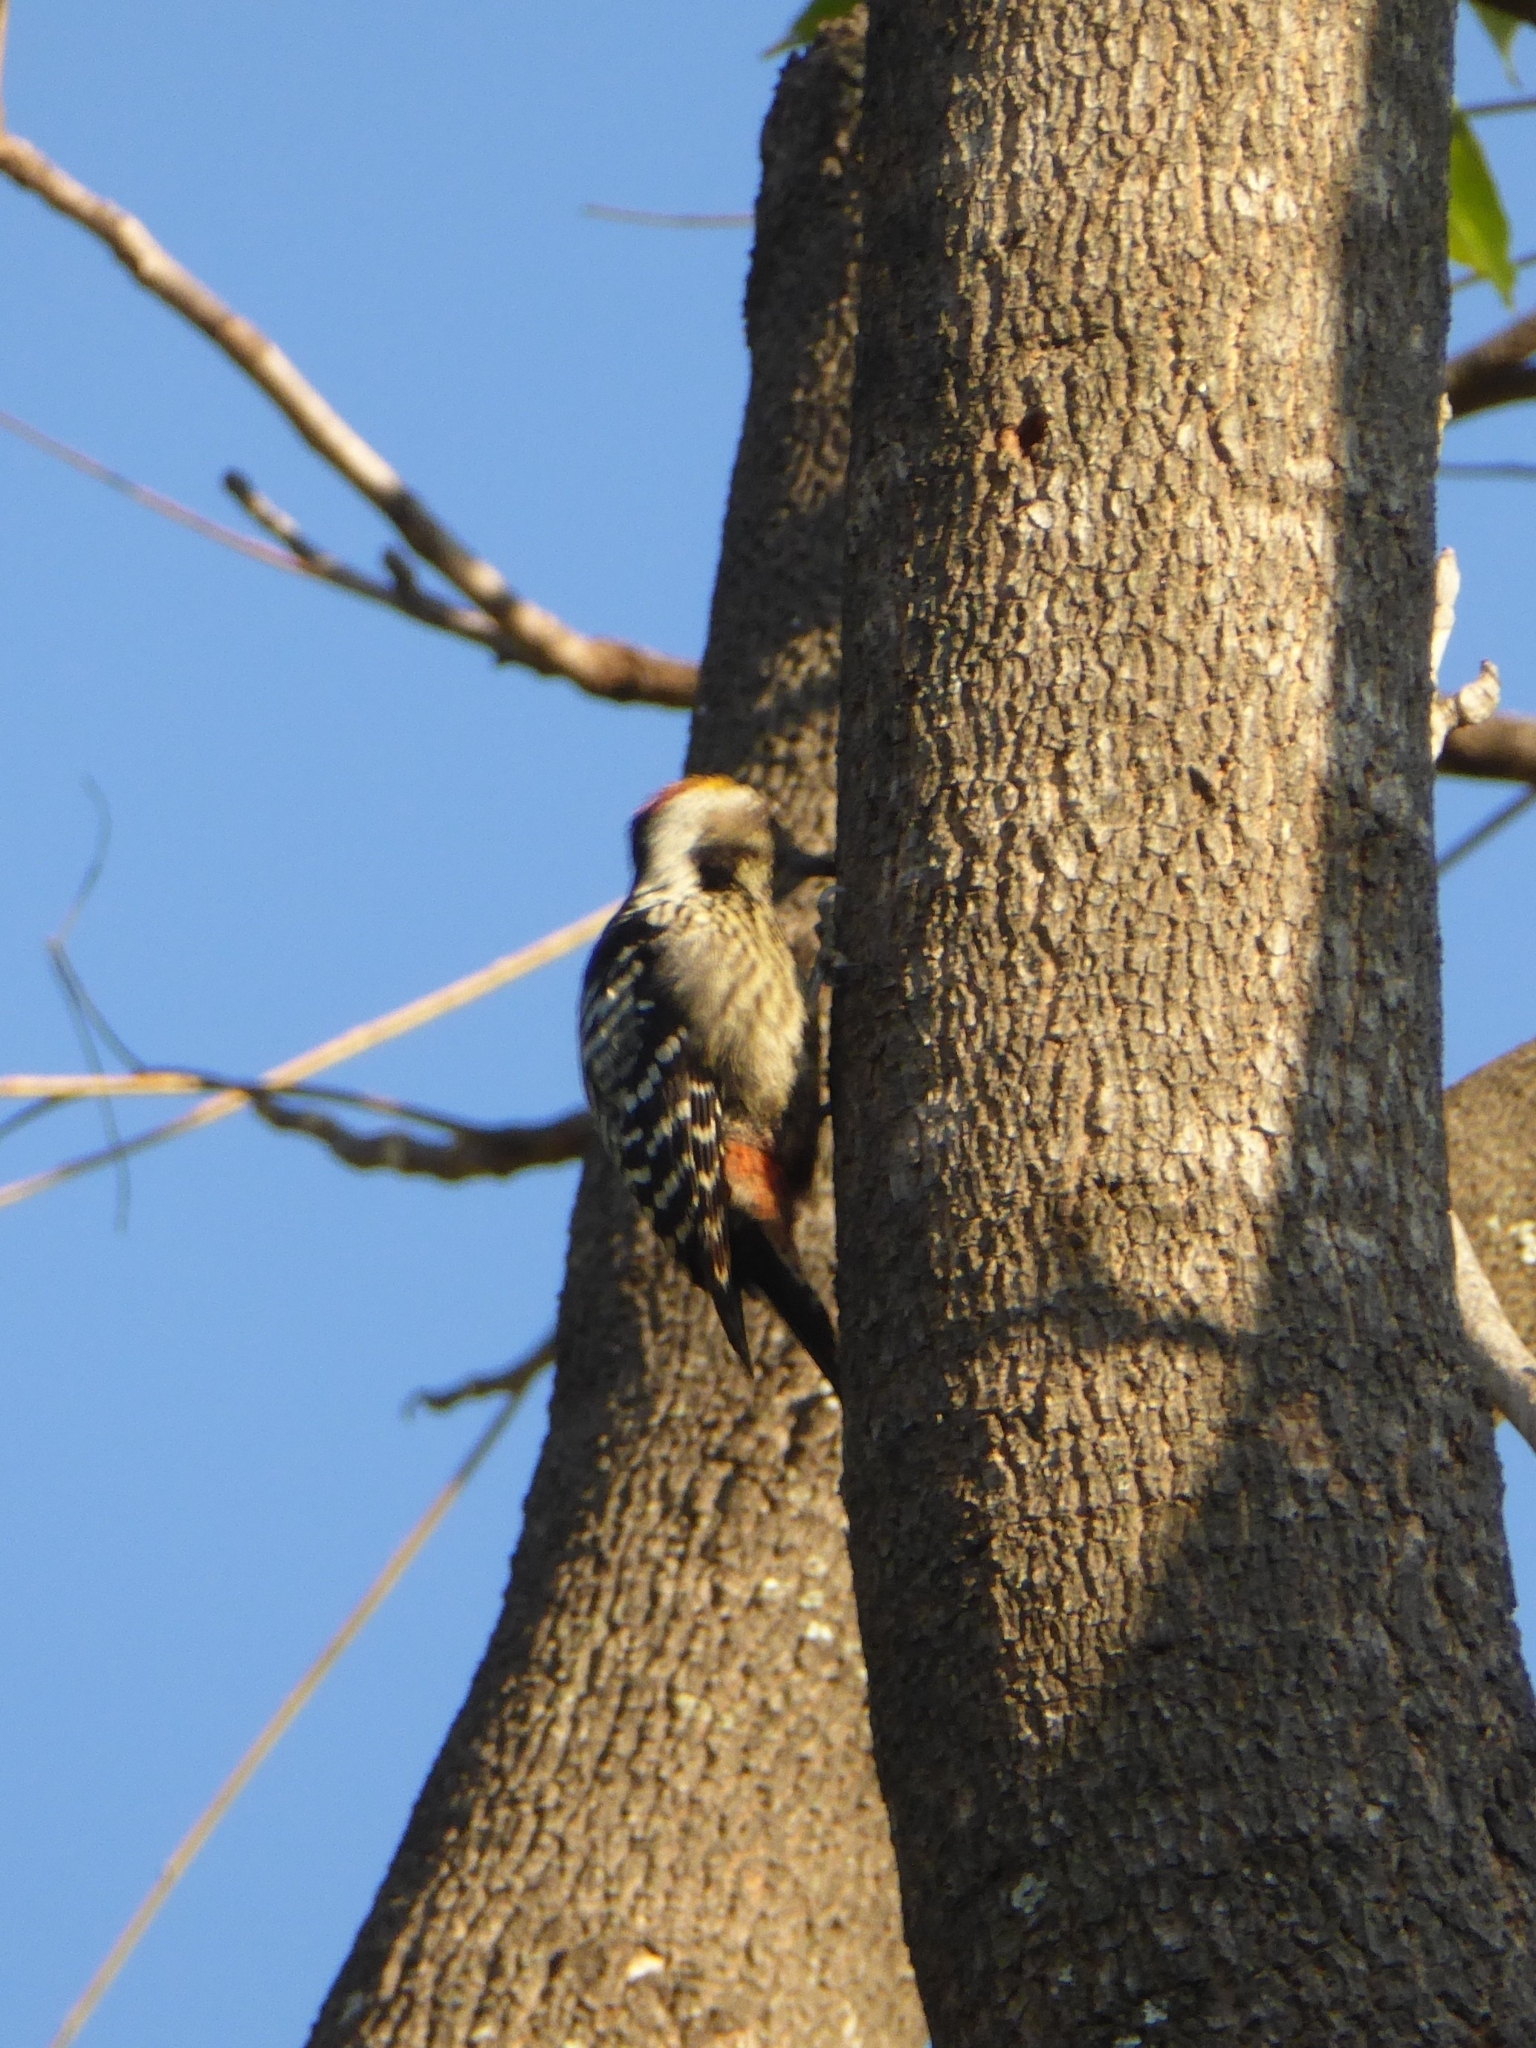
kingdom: Animalia
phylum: Chordata
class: Aves
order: Piciformes
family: Picidae
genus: Dendrocoptes
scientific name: Dendrocoptes auriceps
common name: Brown-fronted woodpecker
